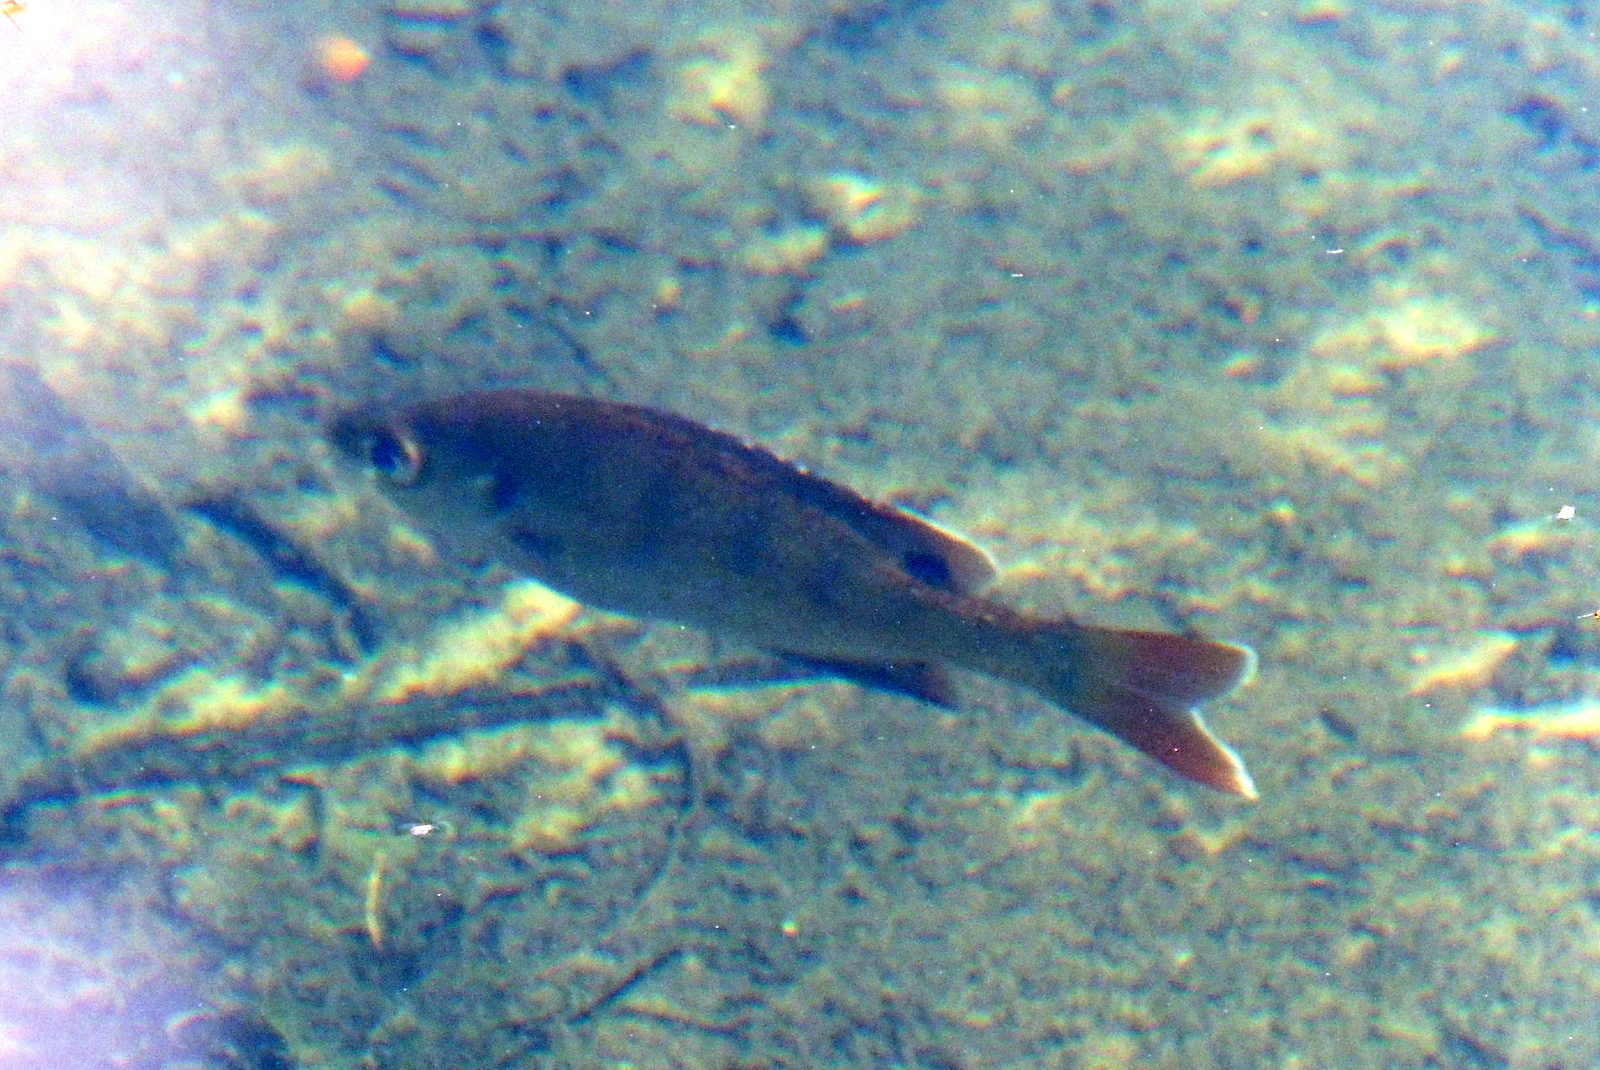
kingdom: Animalia
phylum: Chordata
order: Perciformes
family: Centrarchidae
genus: Lepomis
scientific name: Lepomis macrochirus
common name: Bluegill
